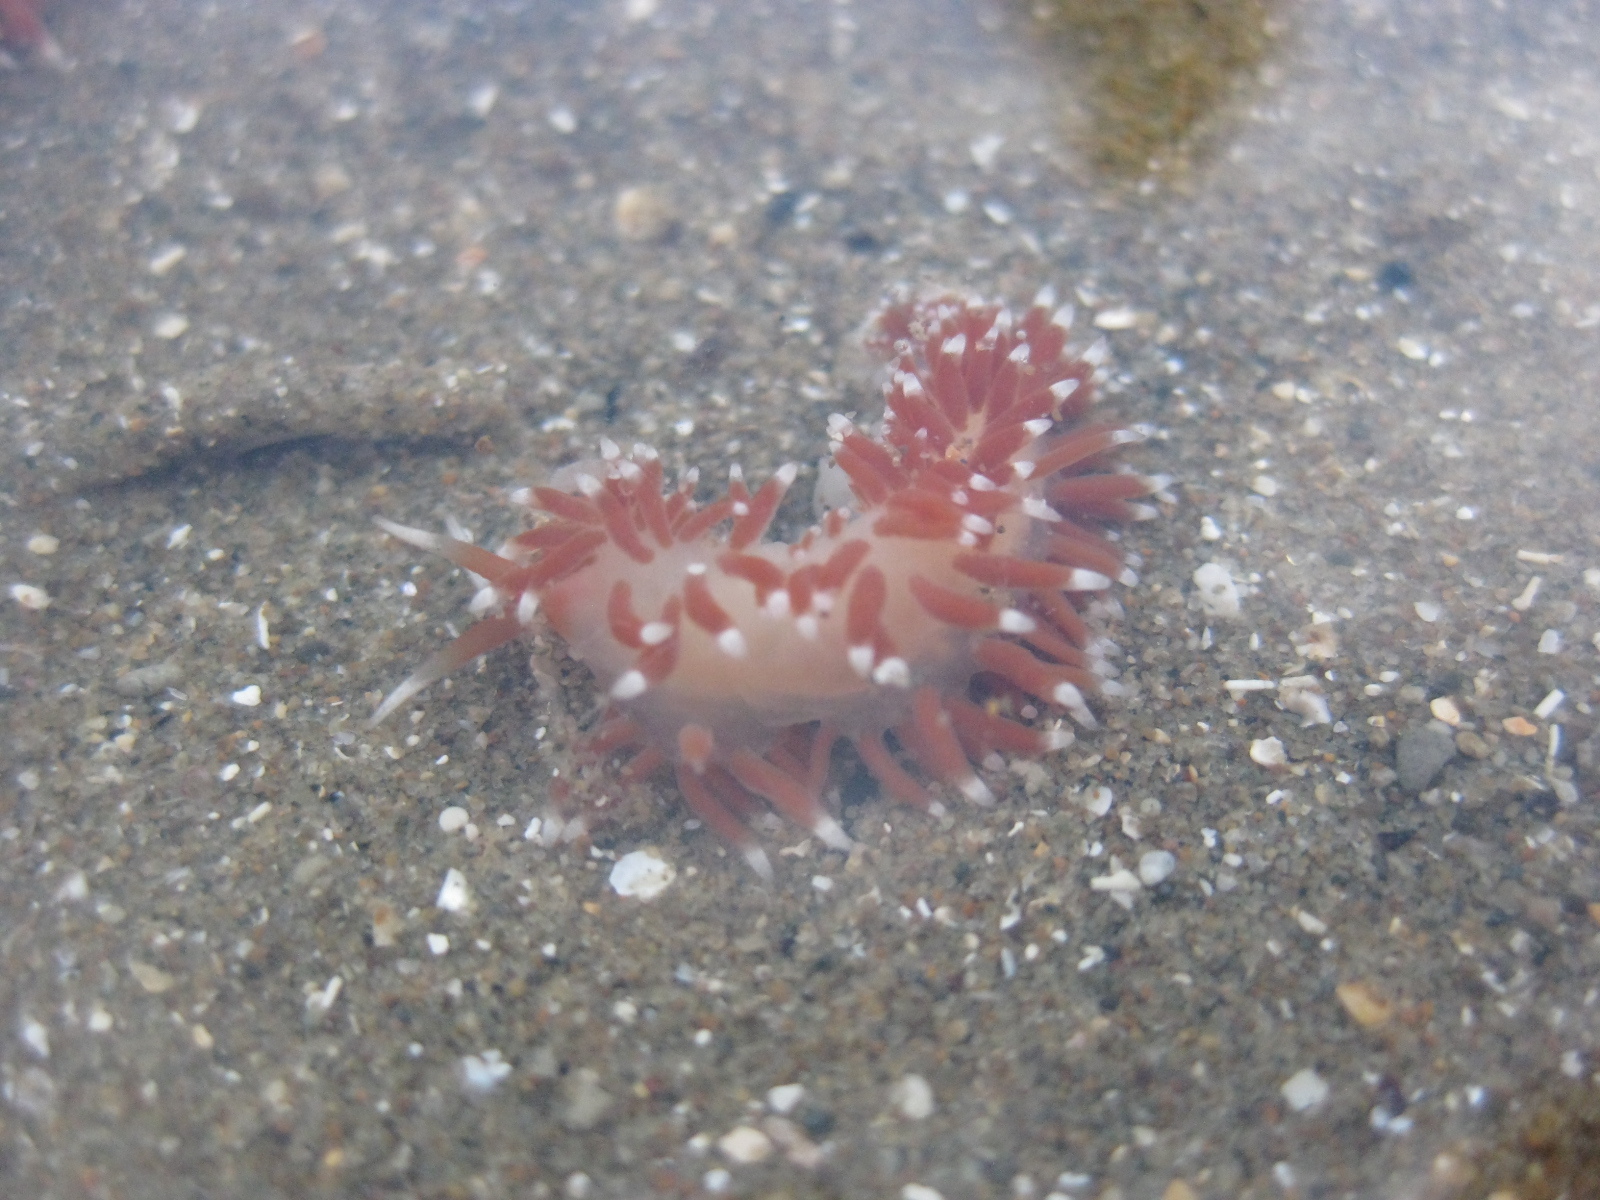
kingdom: Animalia
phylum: Mollusca
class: Gastropoda
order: Nudibranchia
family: Facelinidae
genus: Phidiana
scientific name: Phidiana milleri
